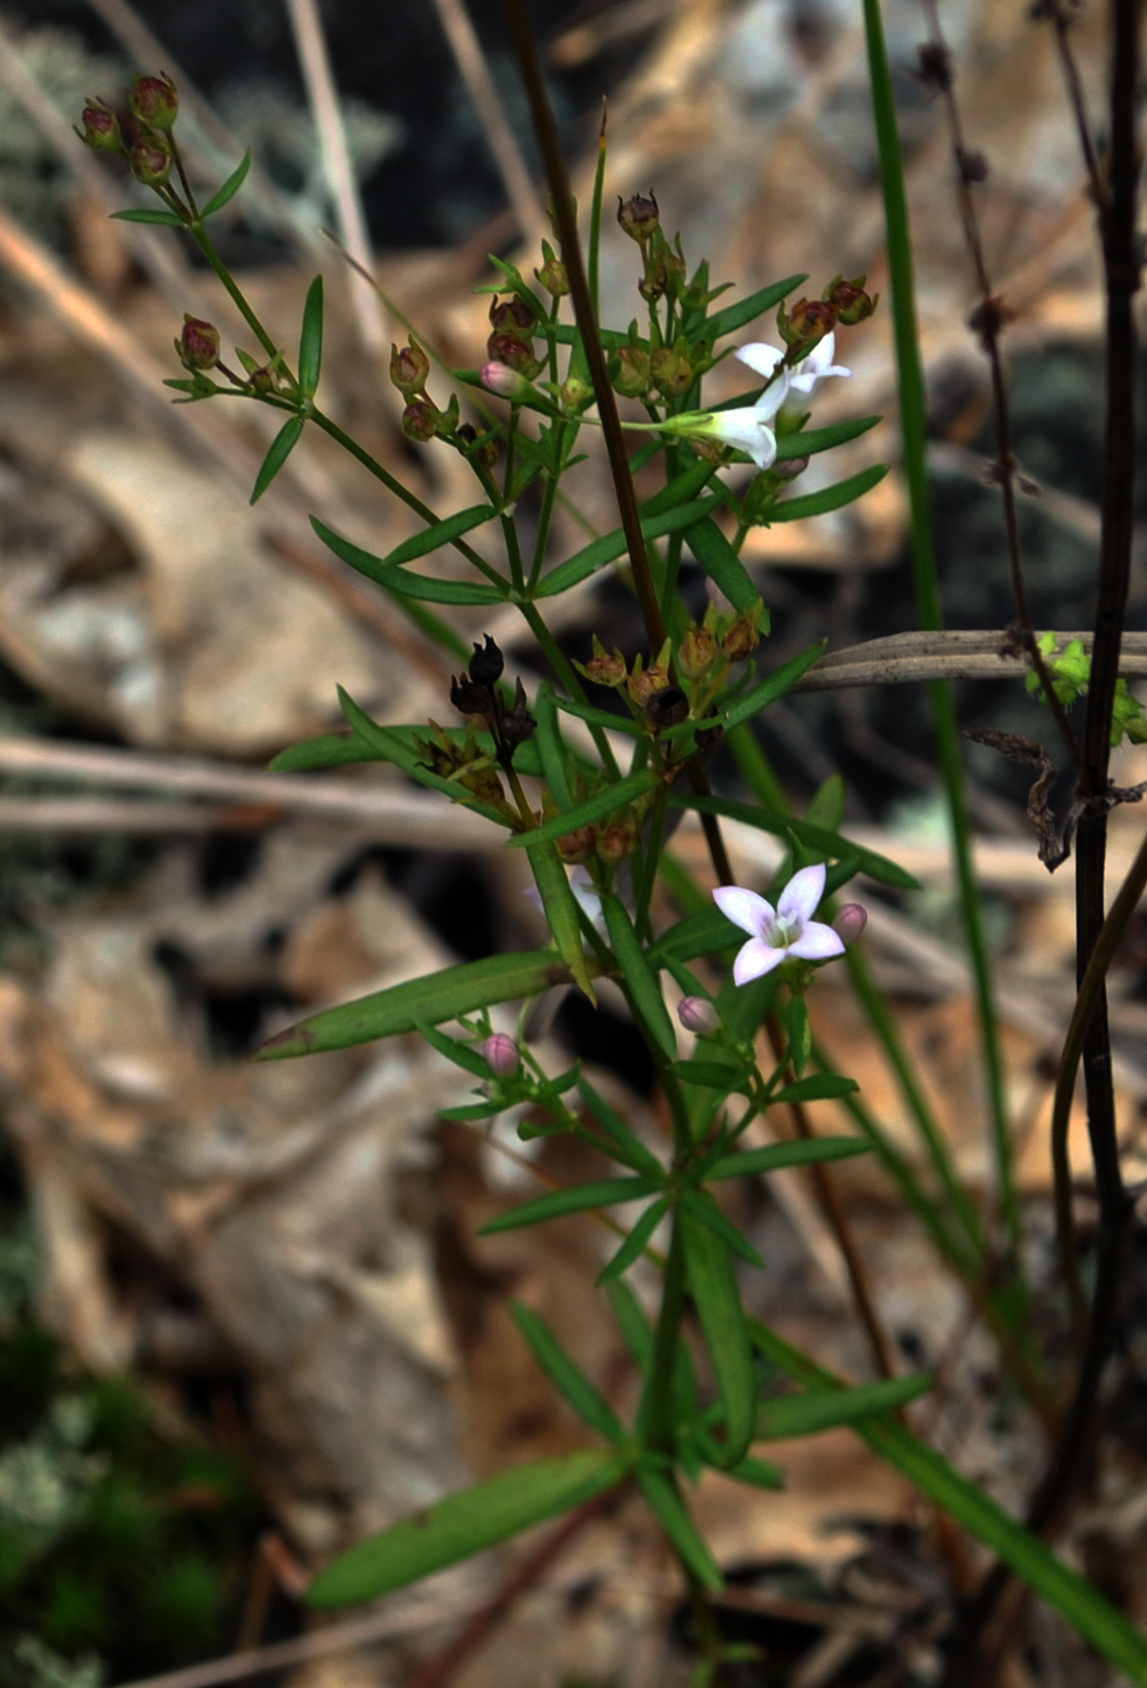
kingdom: Plantae
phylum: Tracheophyta
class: Magnoliopsida
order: Gentianales
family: Rubiaceae
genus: Houstonia
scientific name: Houstonia longifolia
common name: Long-leaved bluets
